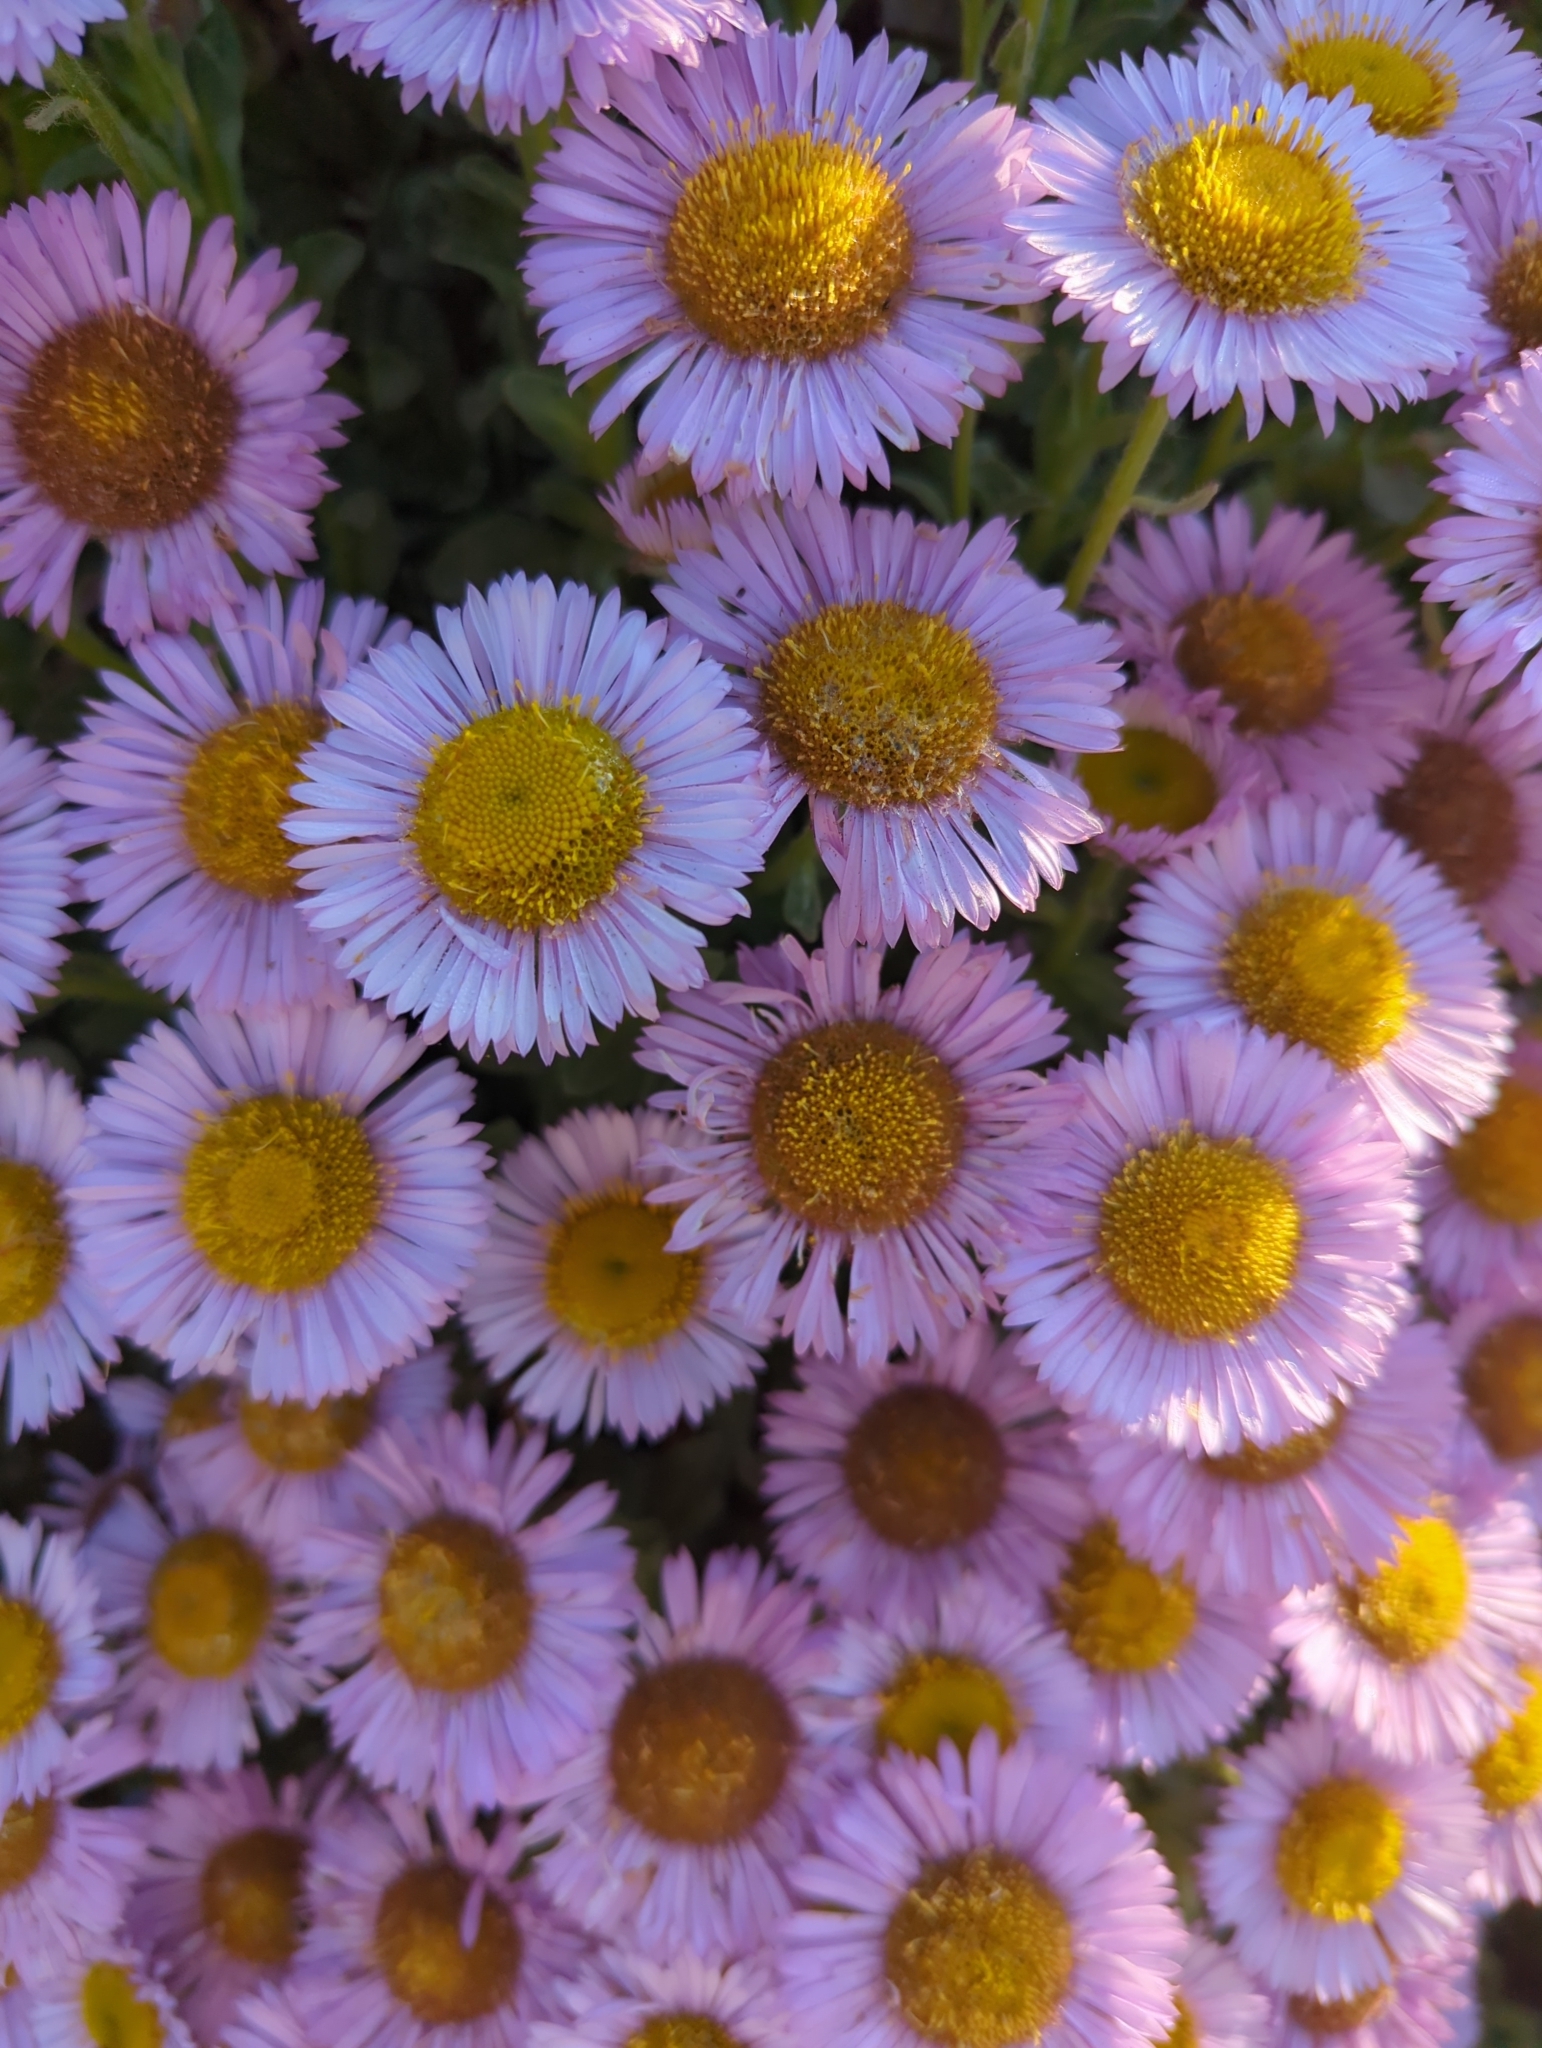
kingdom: Plantae
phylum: Tracheophyta
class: Magnoliopsida
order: Asterales
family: Asteraceae
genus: Erigeron
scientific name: Erigeron glaucus
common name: Seaside daisy
